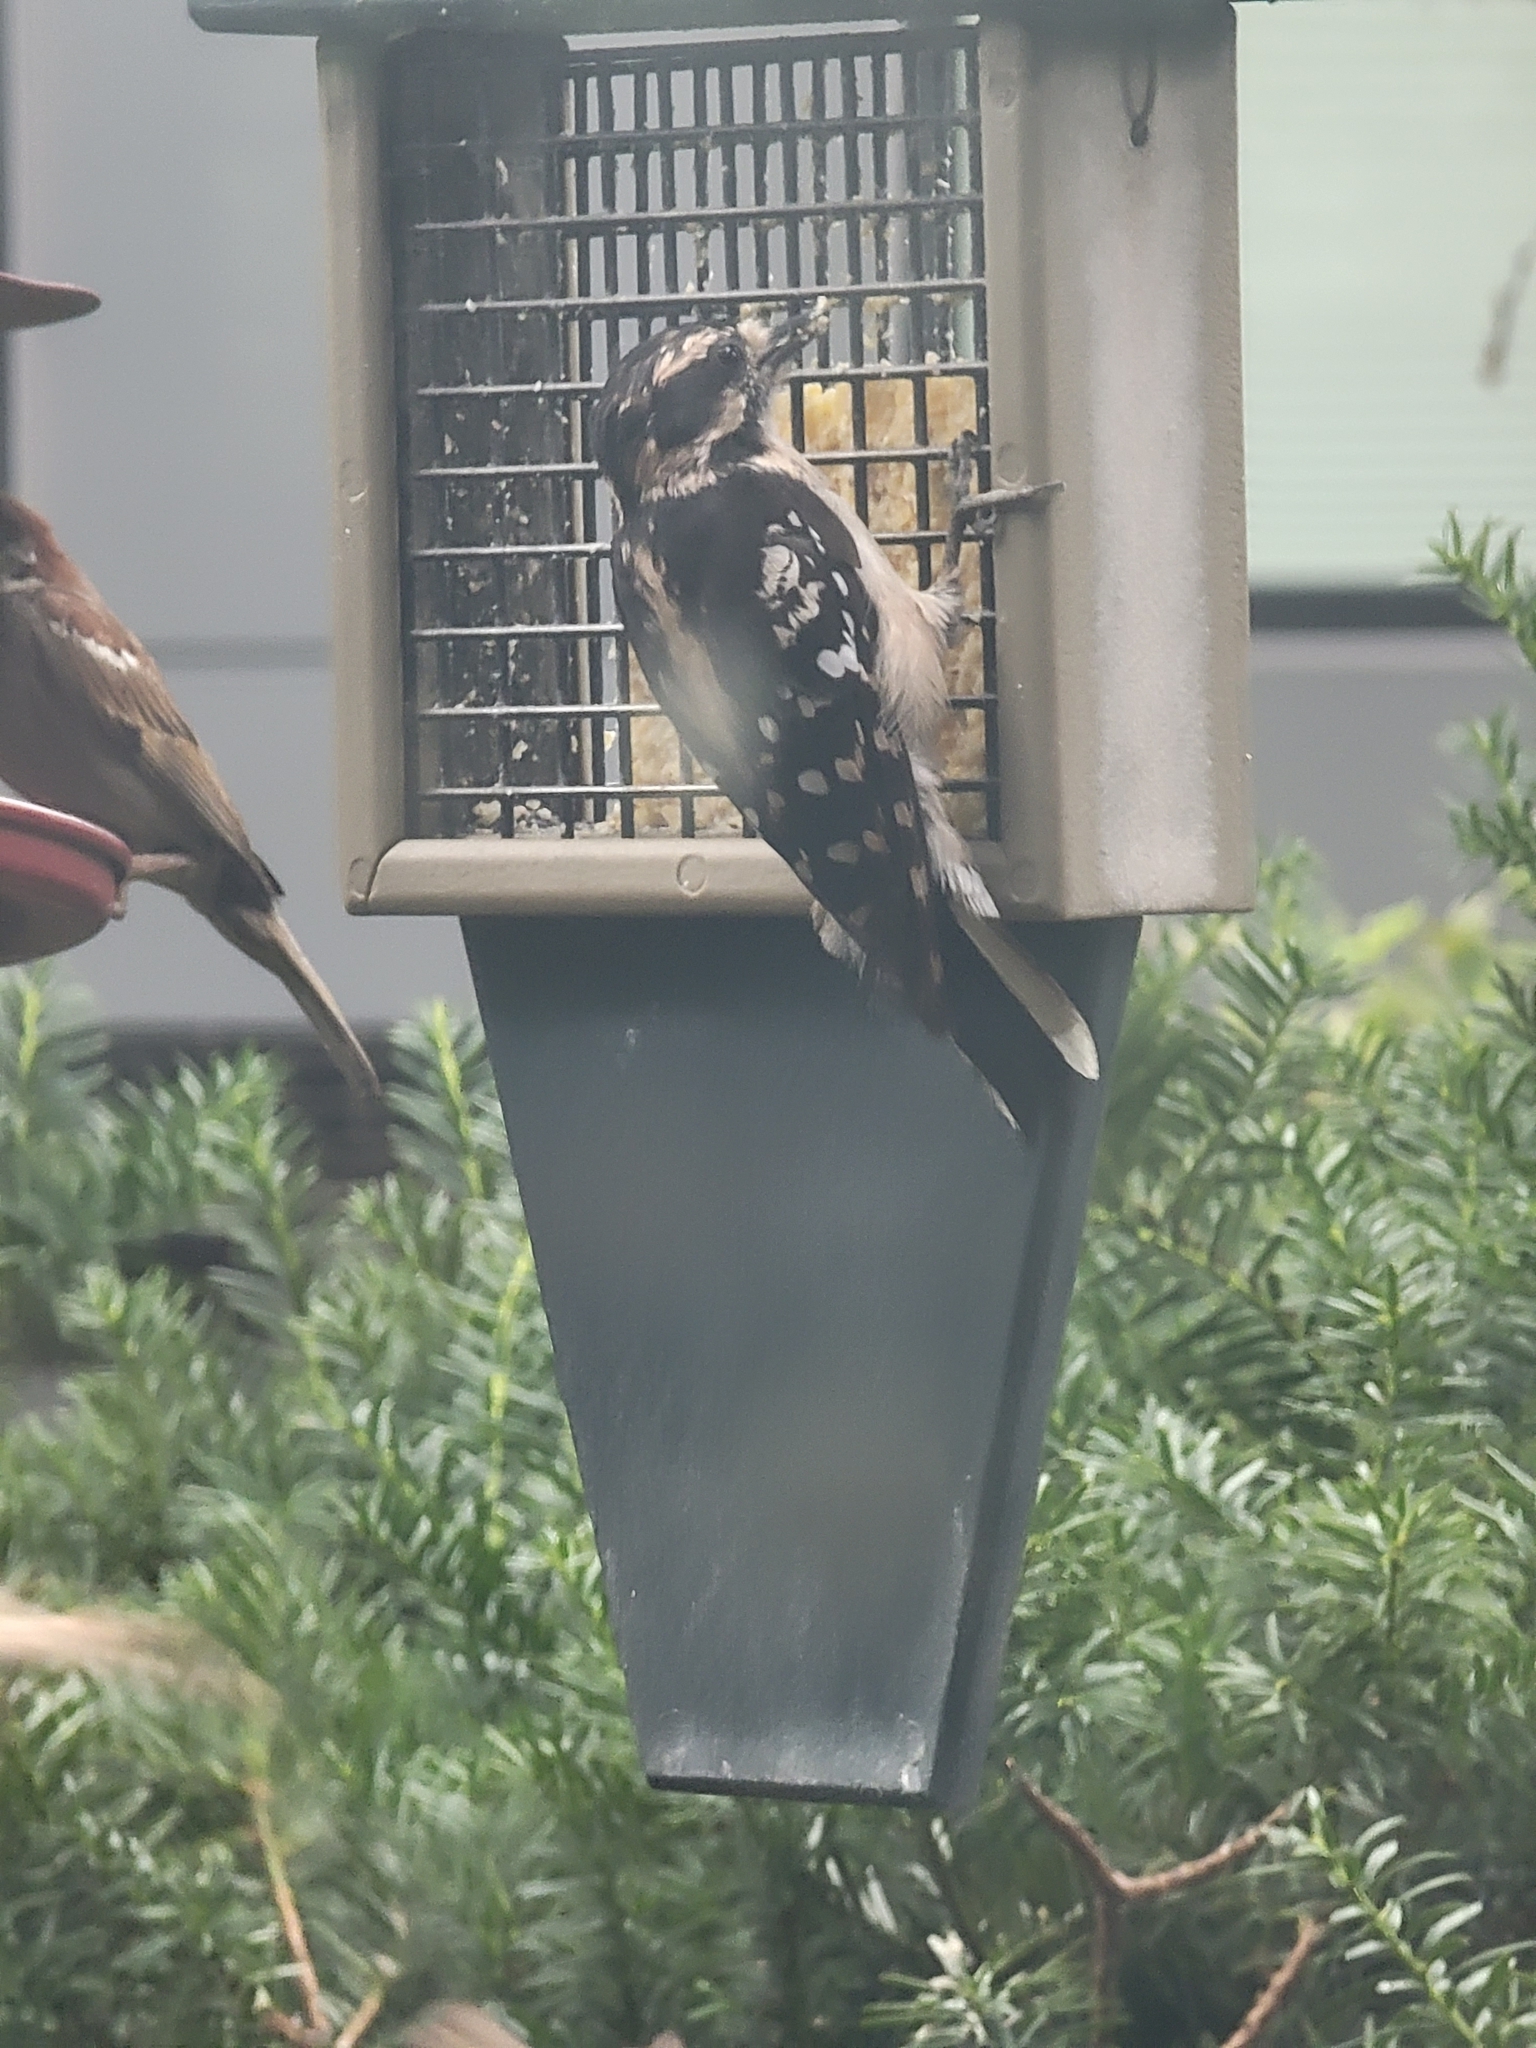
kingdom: Animalia
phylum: Chordata
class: Aves
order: Piciformes
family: Picidae
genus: Dryobates
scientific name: Dryobates pubescens
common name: Downy woodpecker
